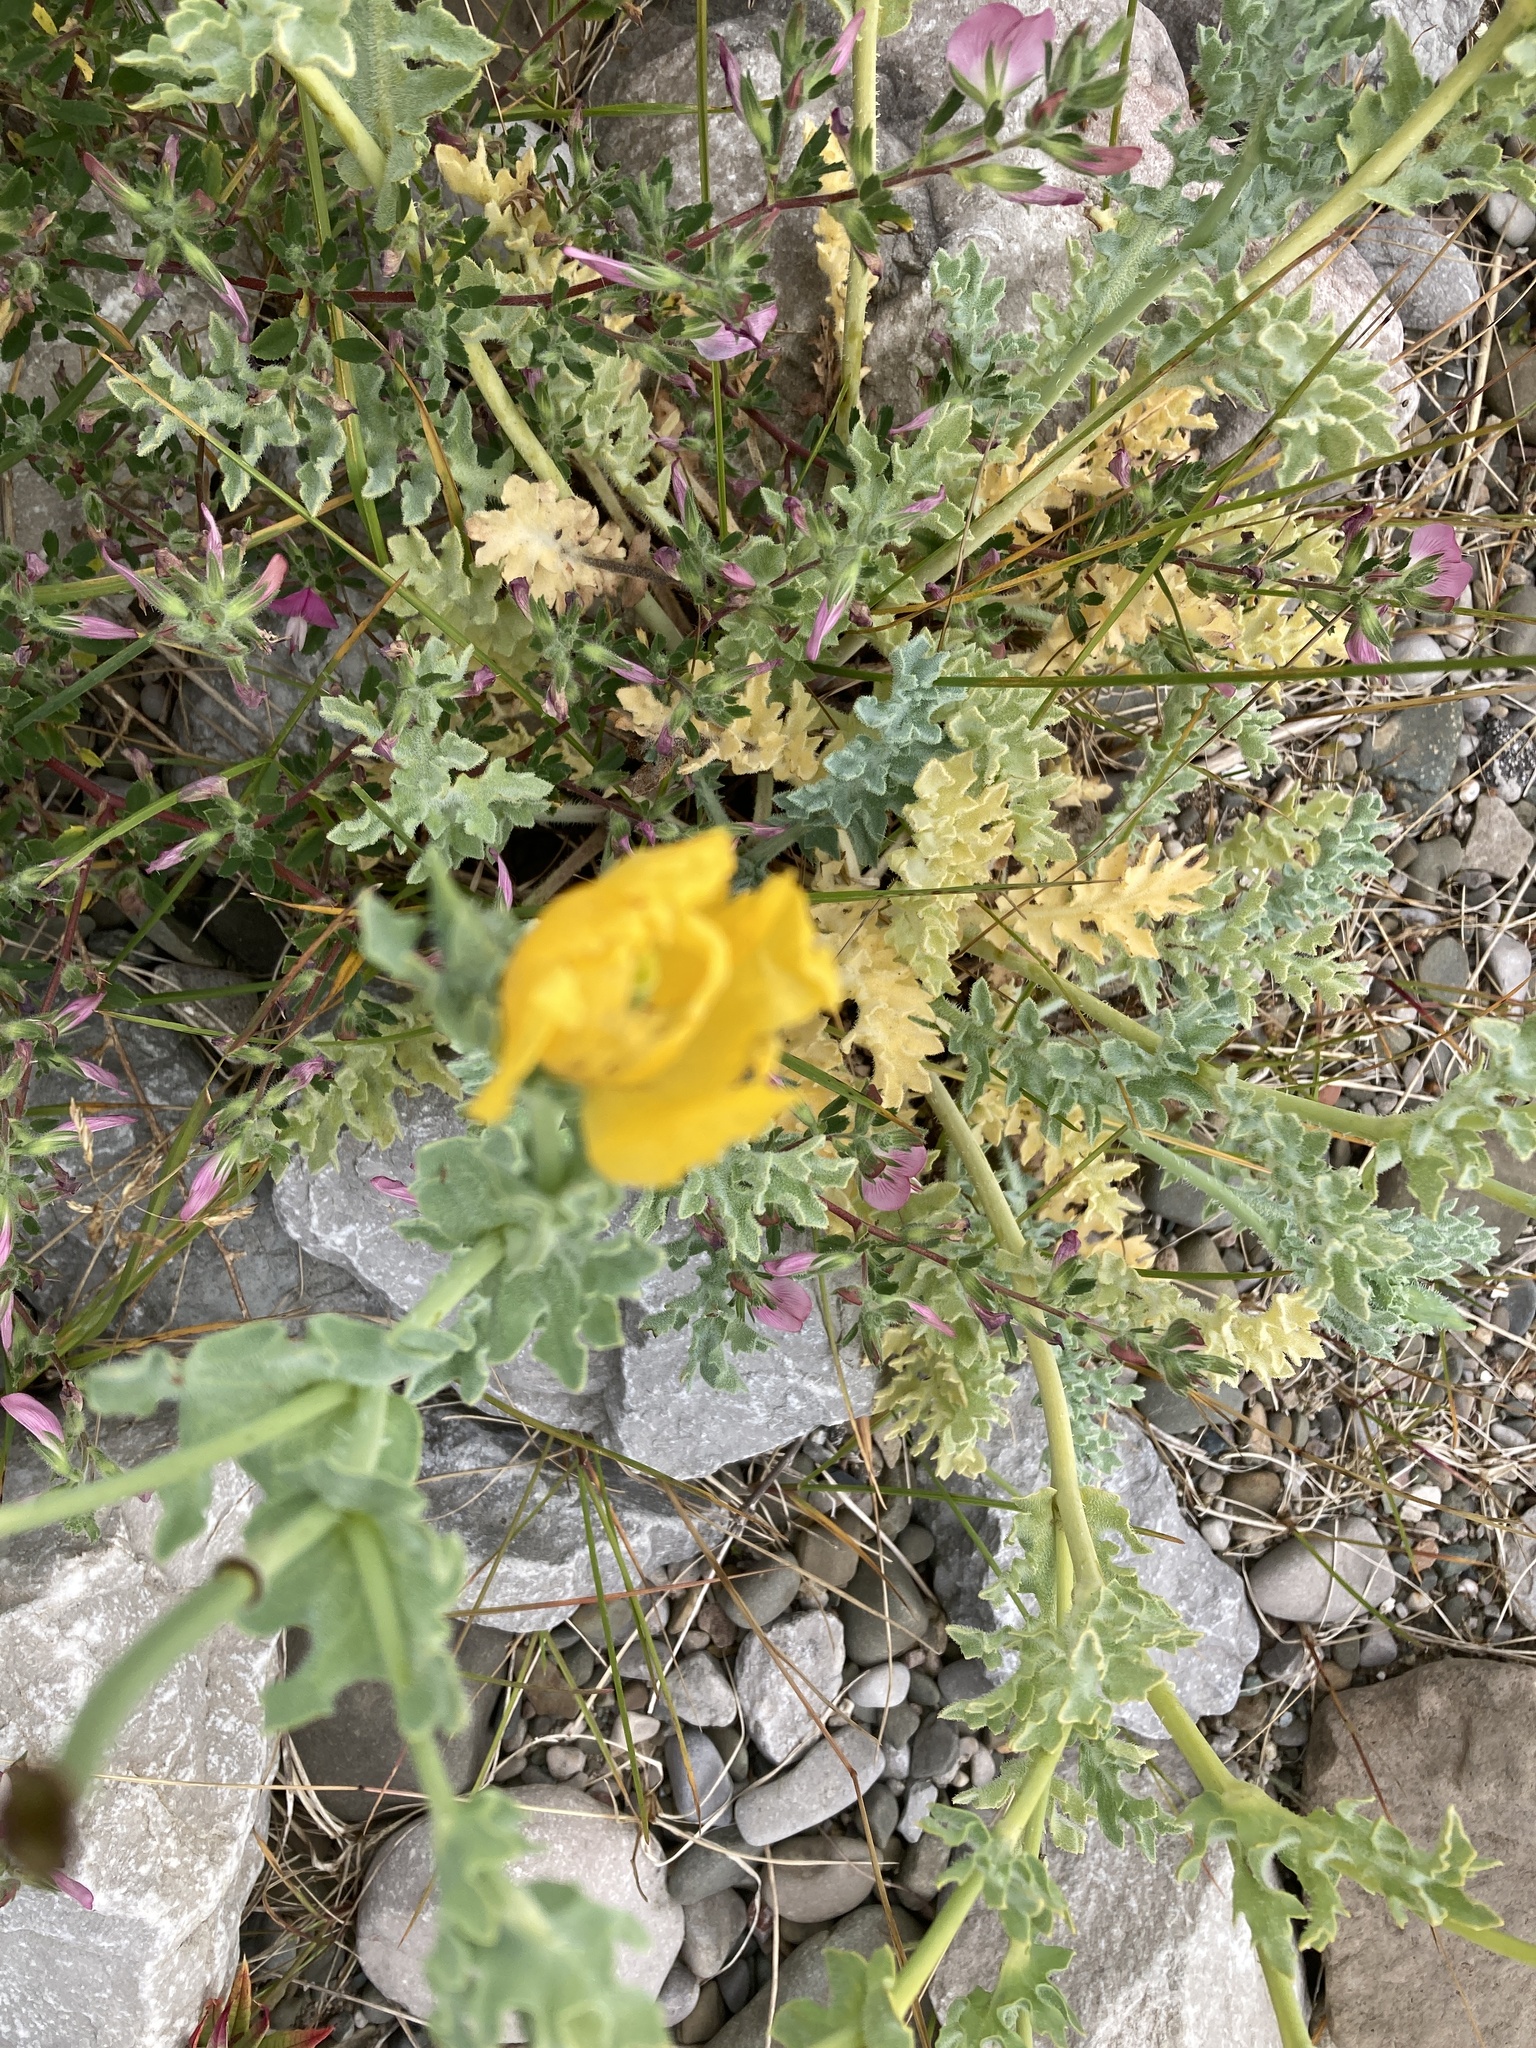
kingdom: Plantae
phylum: Tracheophyta
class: Magnoliopsida
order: Ranunculales
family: Papaveraceae
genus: Glaucium
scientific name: Glaucium flavum
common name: Yellow horned-poppy
